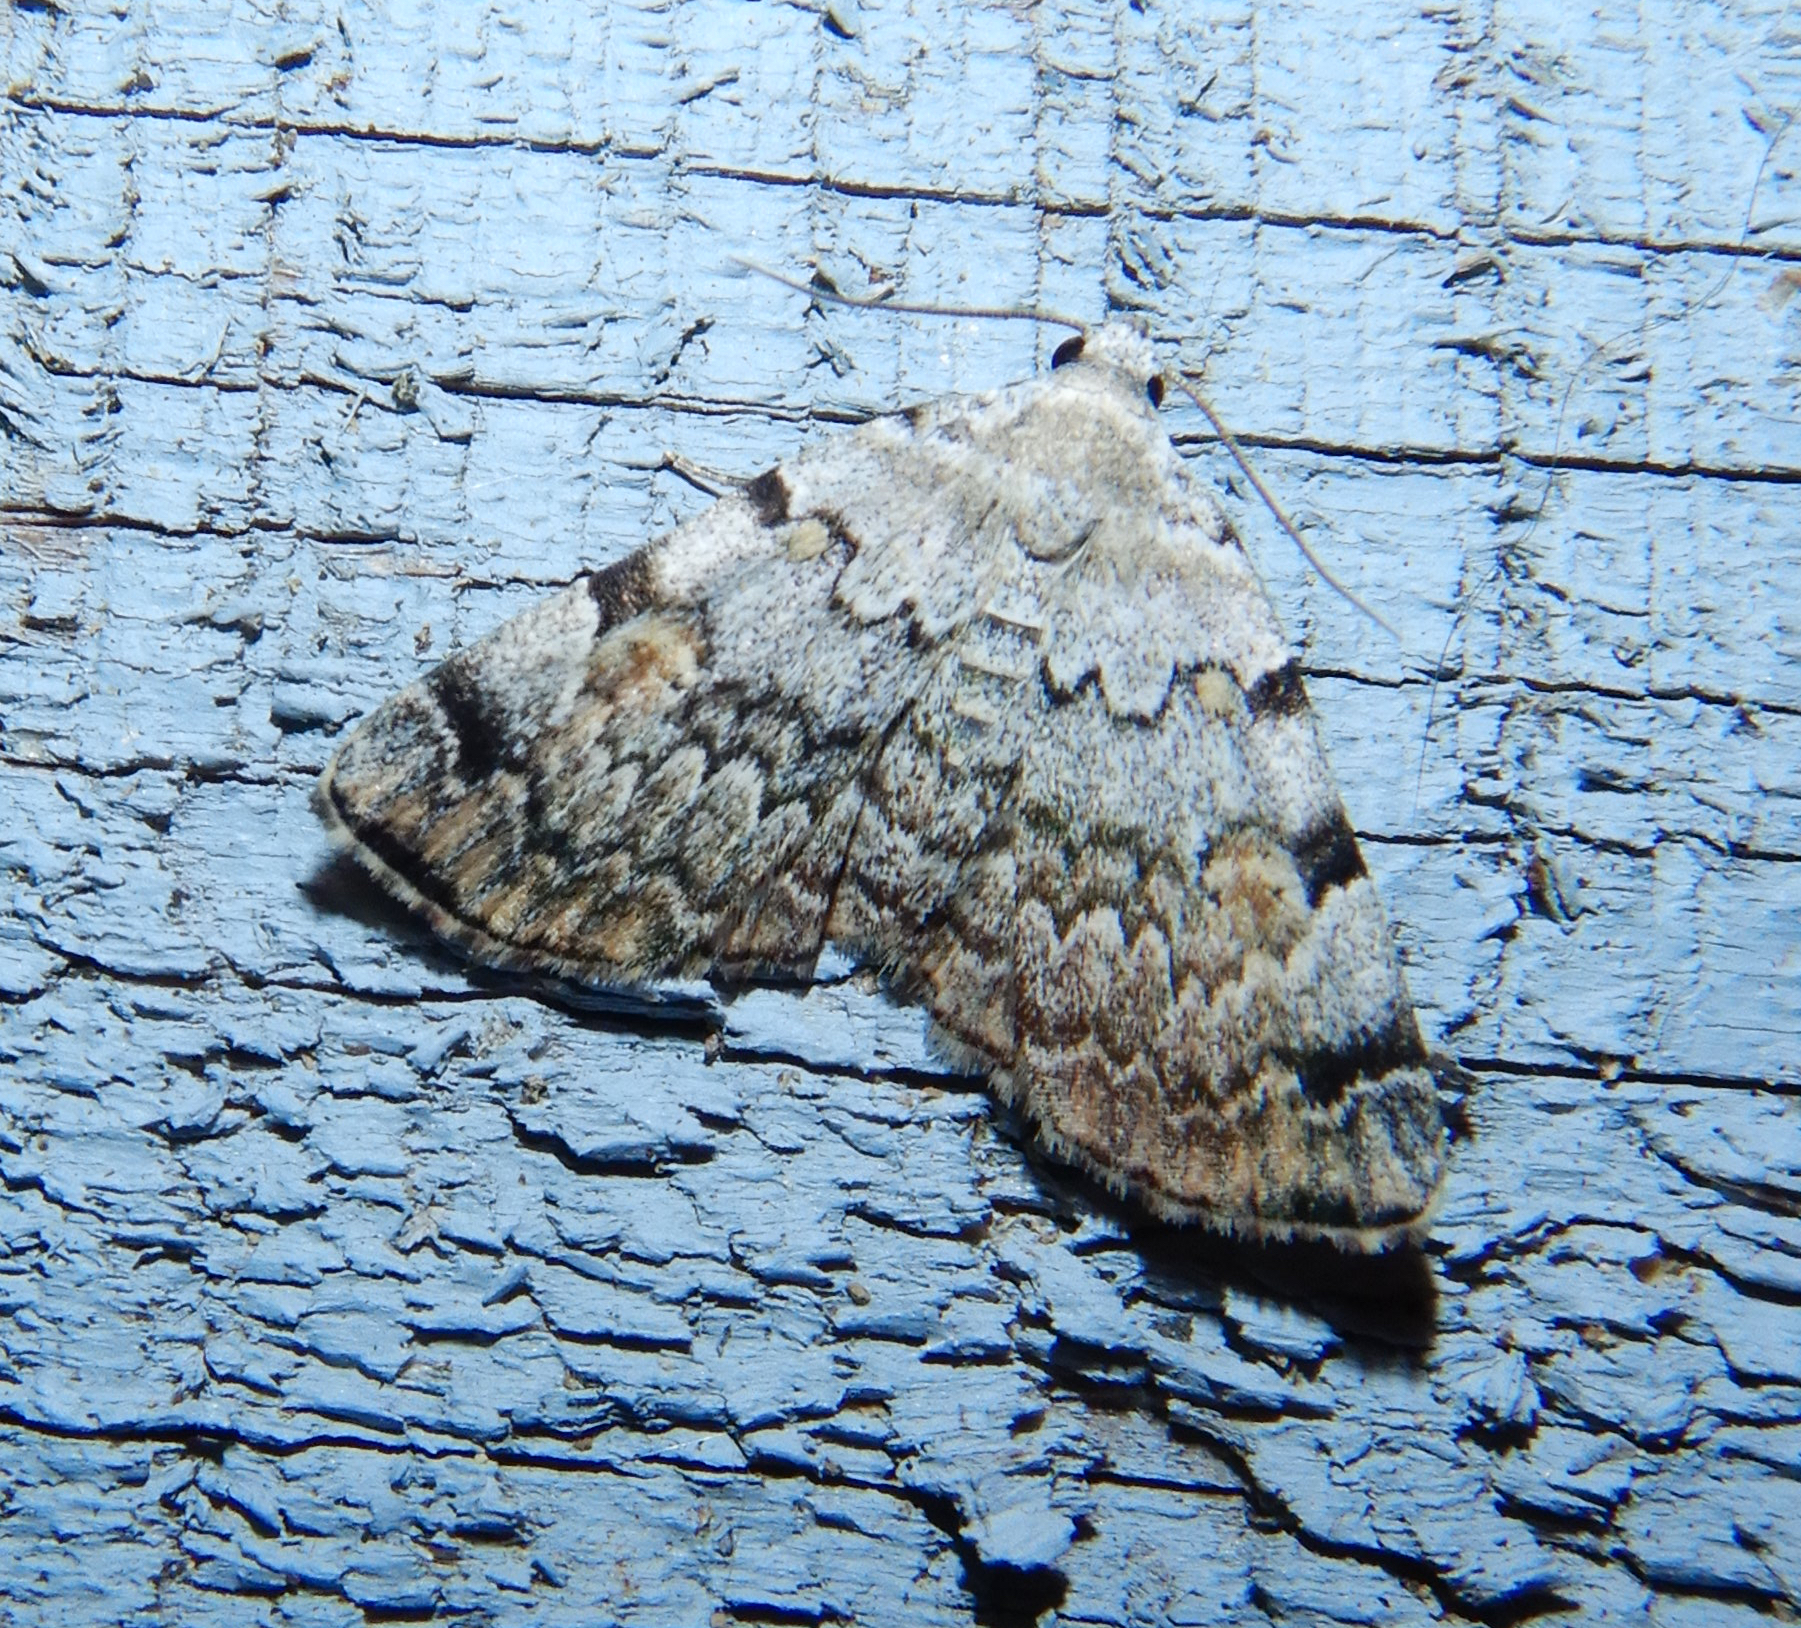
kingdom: Animalia
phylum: Arthropoda
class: Insecta
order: Lepidoptera
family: Erebidae
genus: Idia
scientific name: Idia americalis
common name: American idia moth
